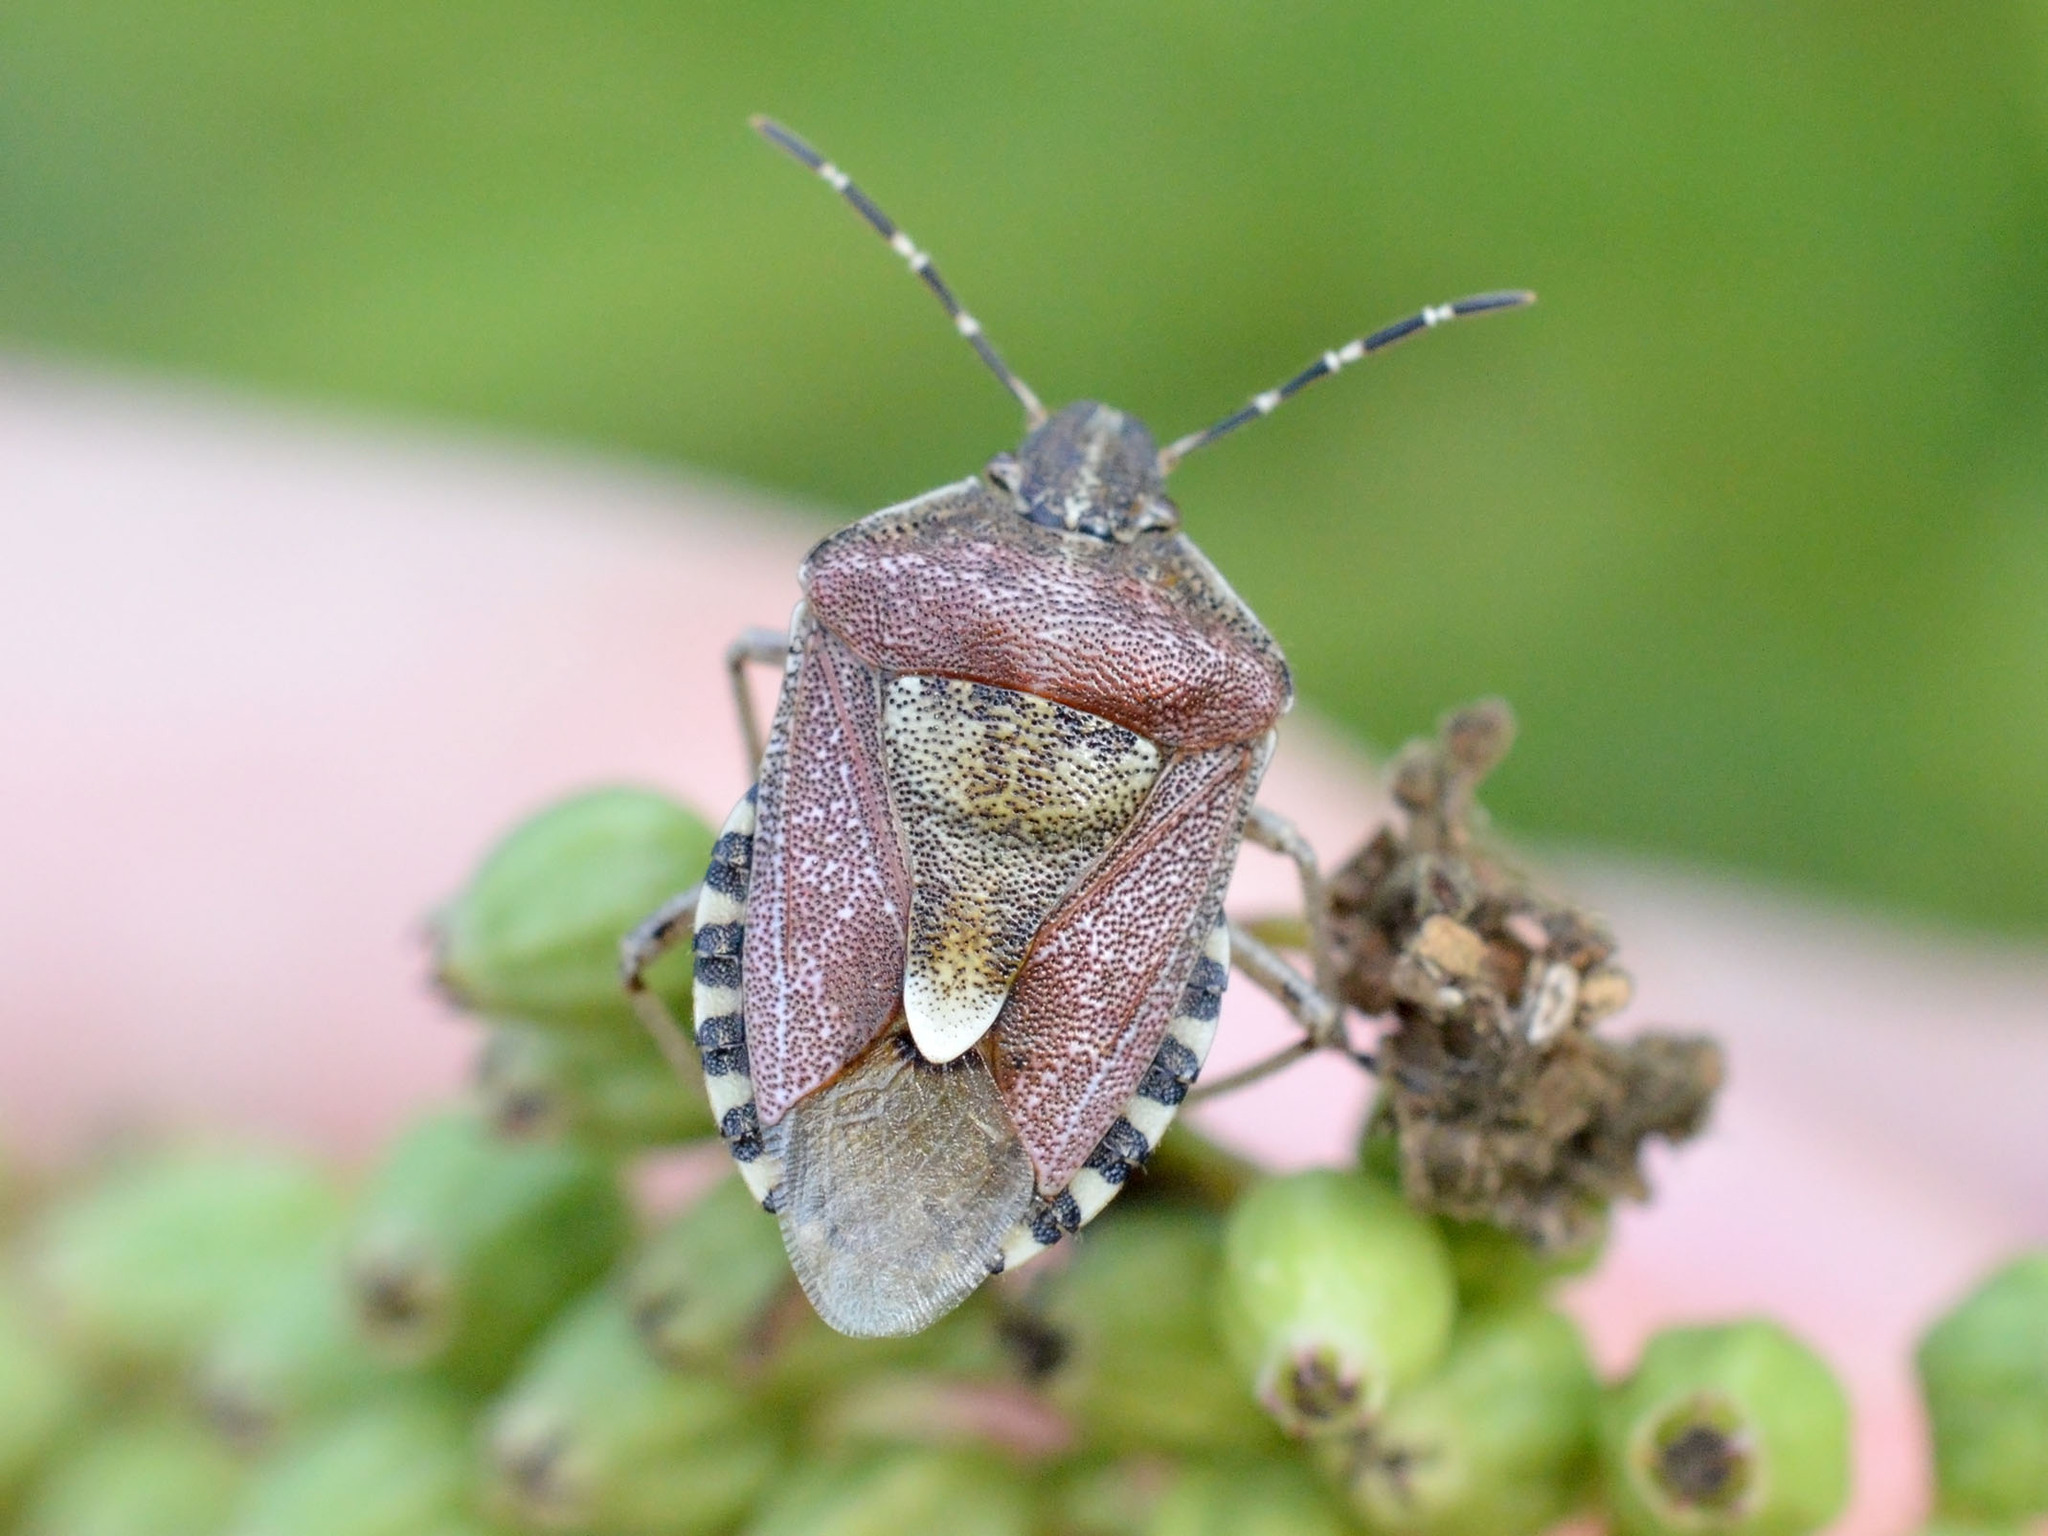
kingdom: Animalia
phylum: Arthropoda
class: Insecta
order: Hemiptera
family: Pentatomidae
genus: Dolycoris
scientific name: Dolycoris baccarum
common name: Sloe bug
